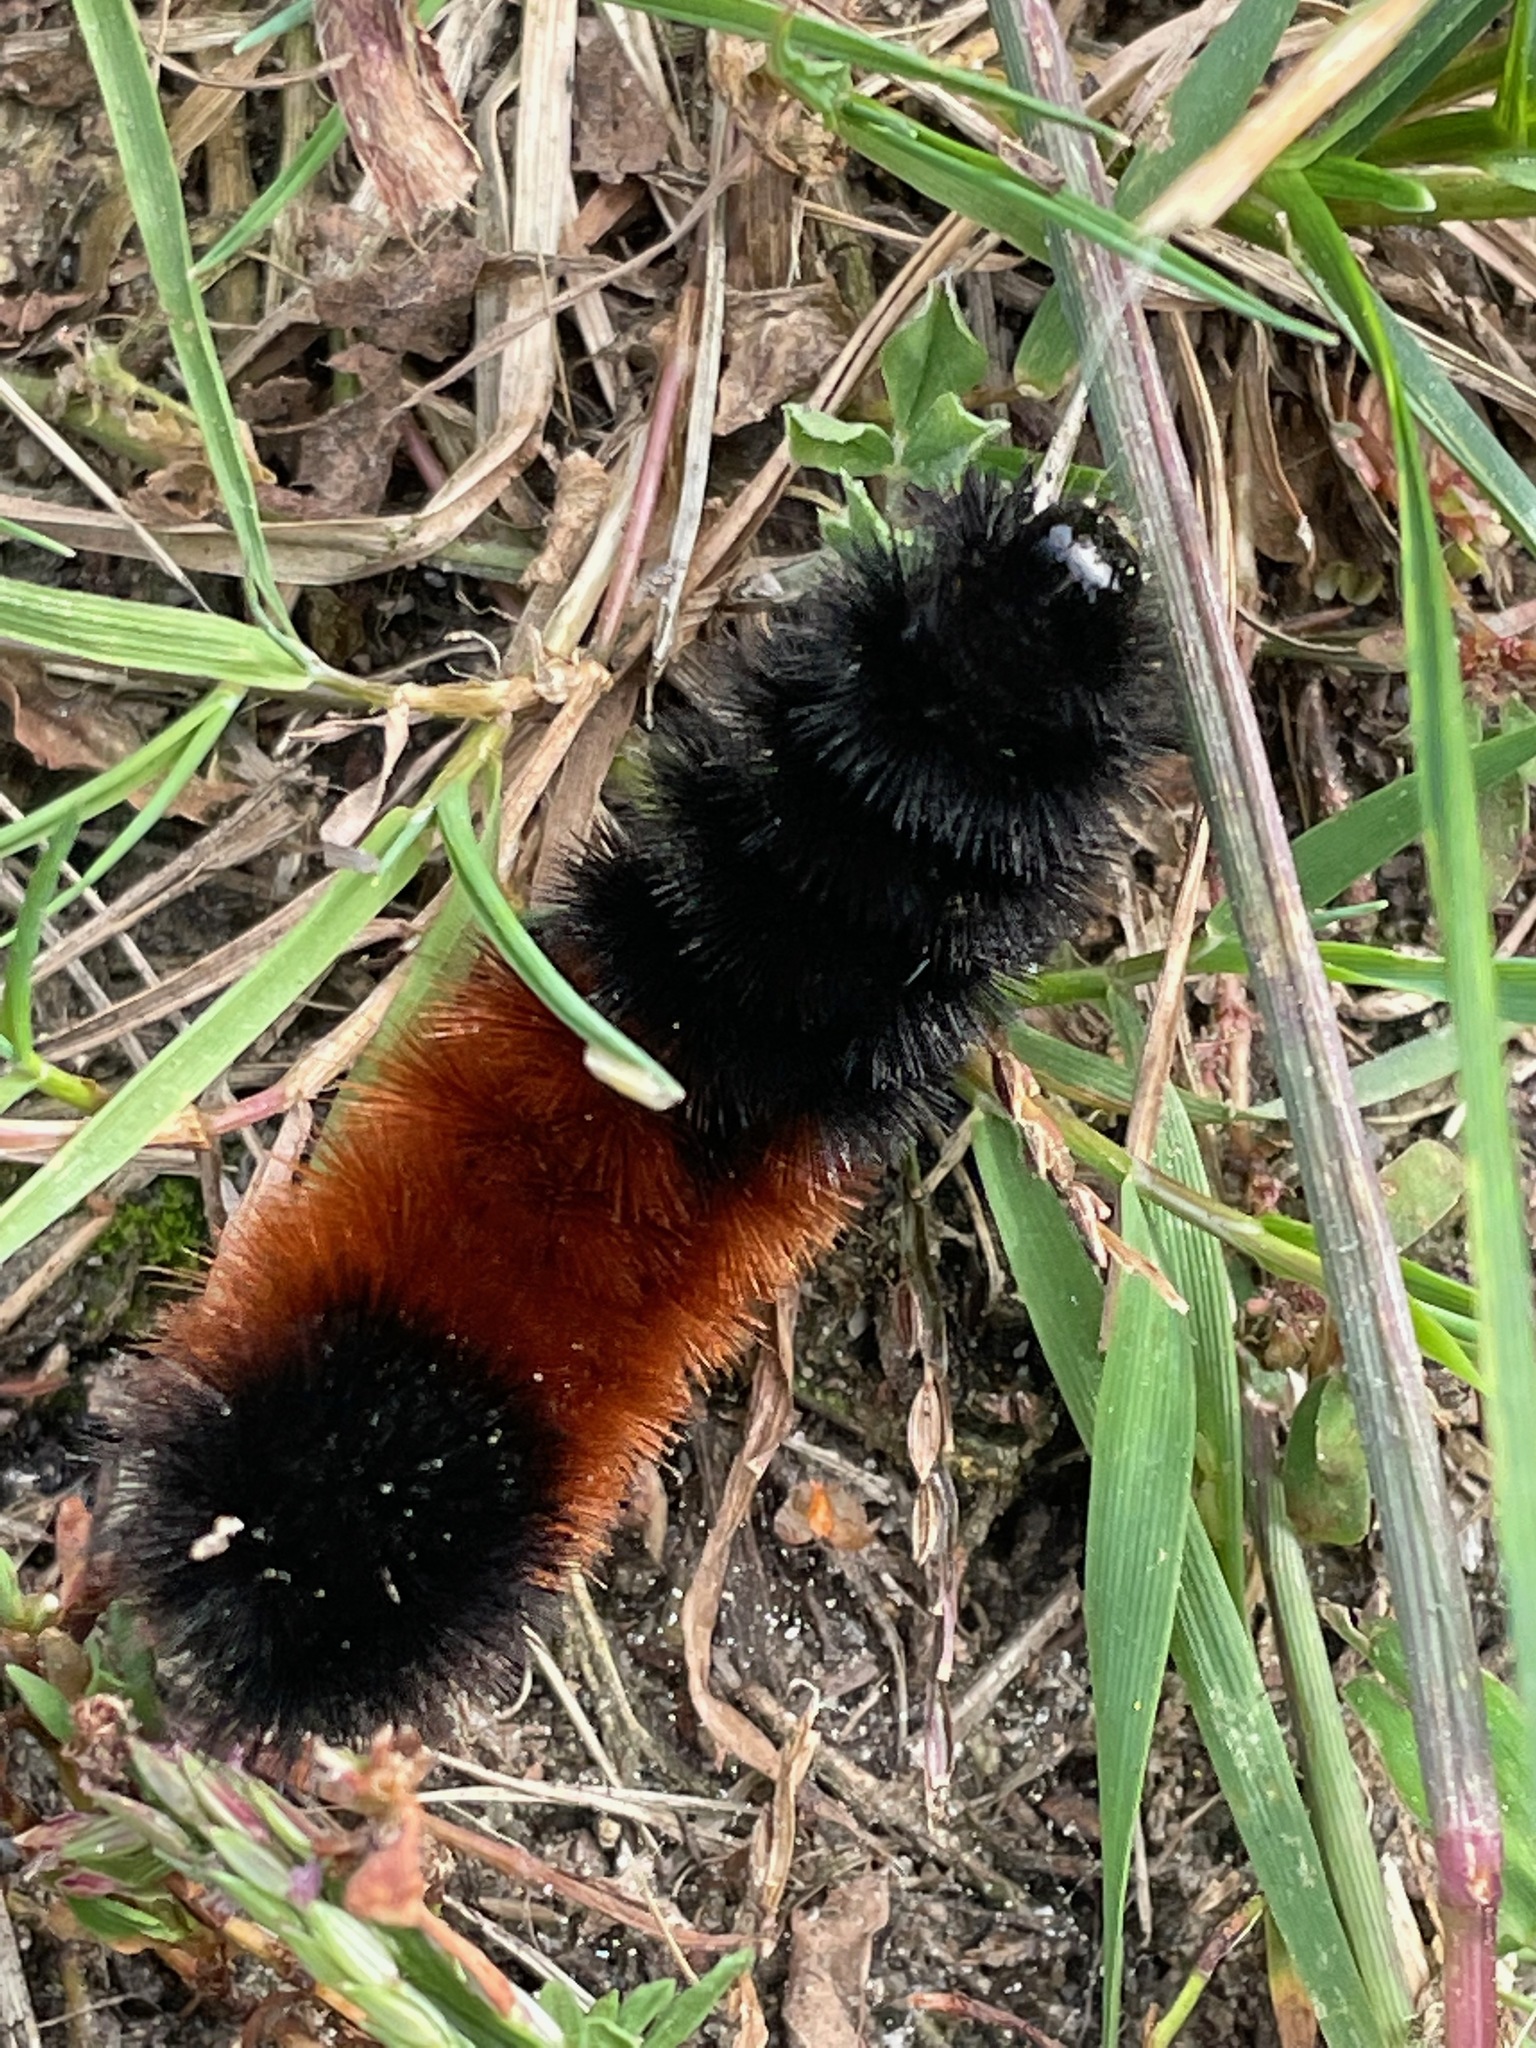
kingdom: Animalia
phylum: Arthropoda
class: Insecta
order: Lepidoptera
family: Erebidae
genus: Pyrrharctia
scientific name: Pyrrharctia isabella
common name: Isabella tiger moth
